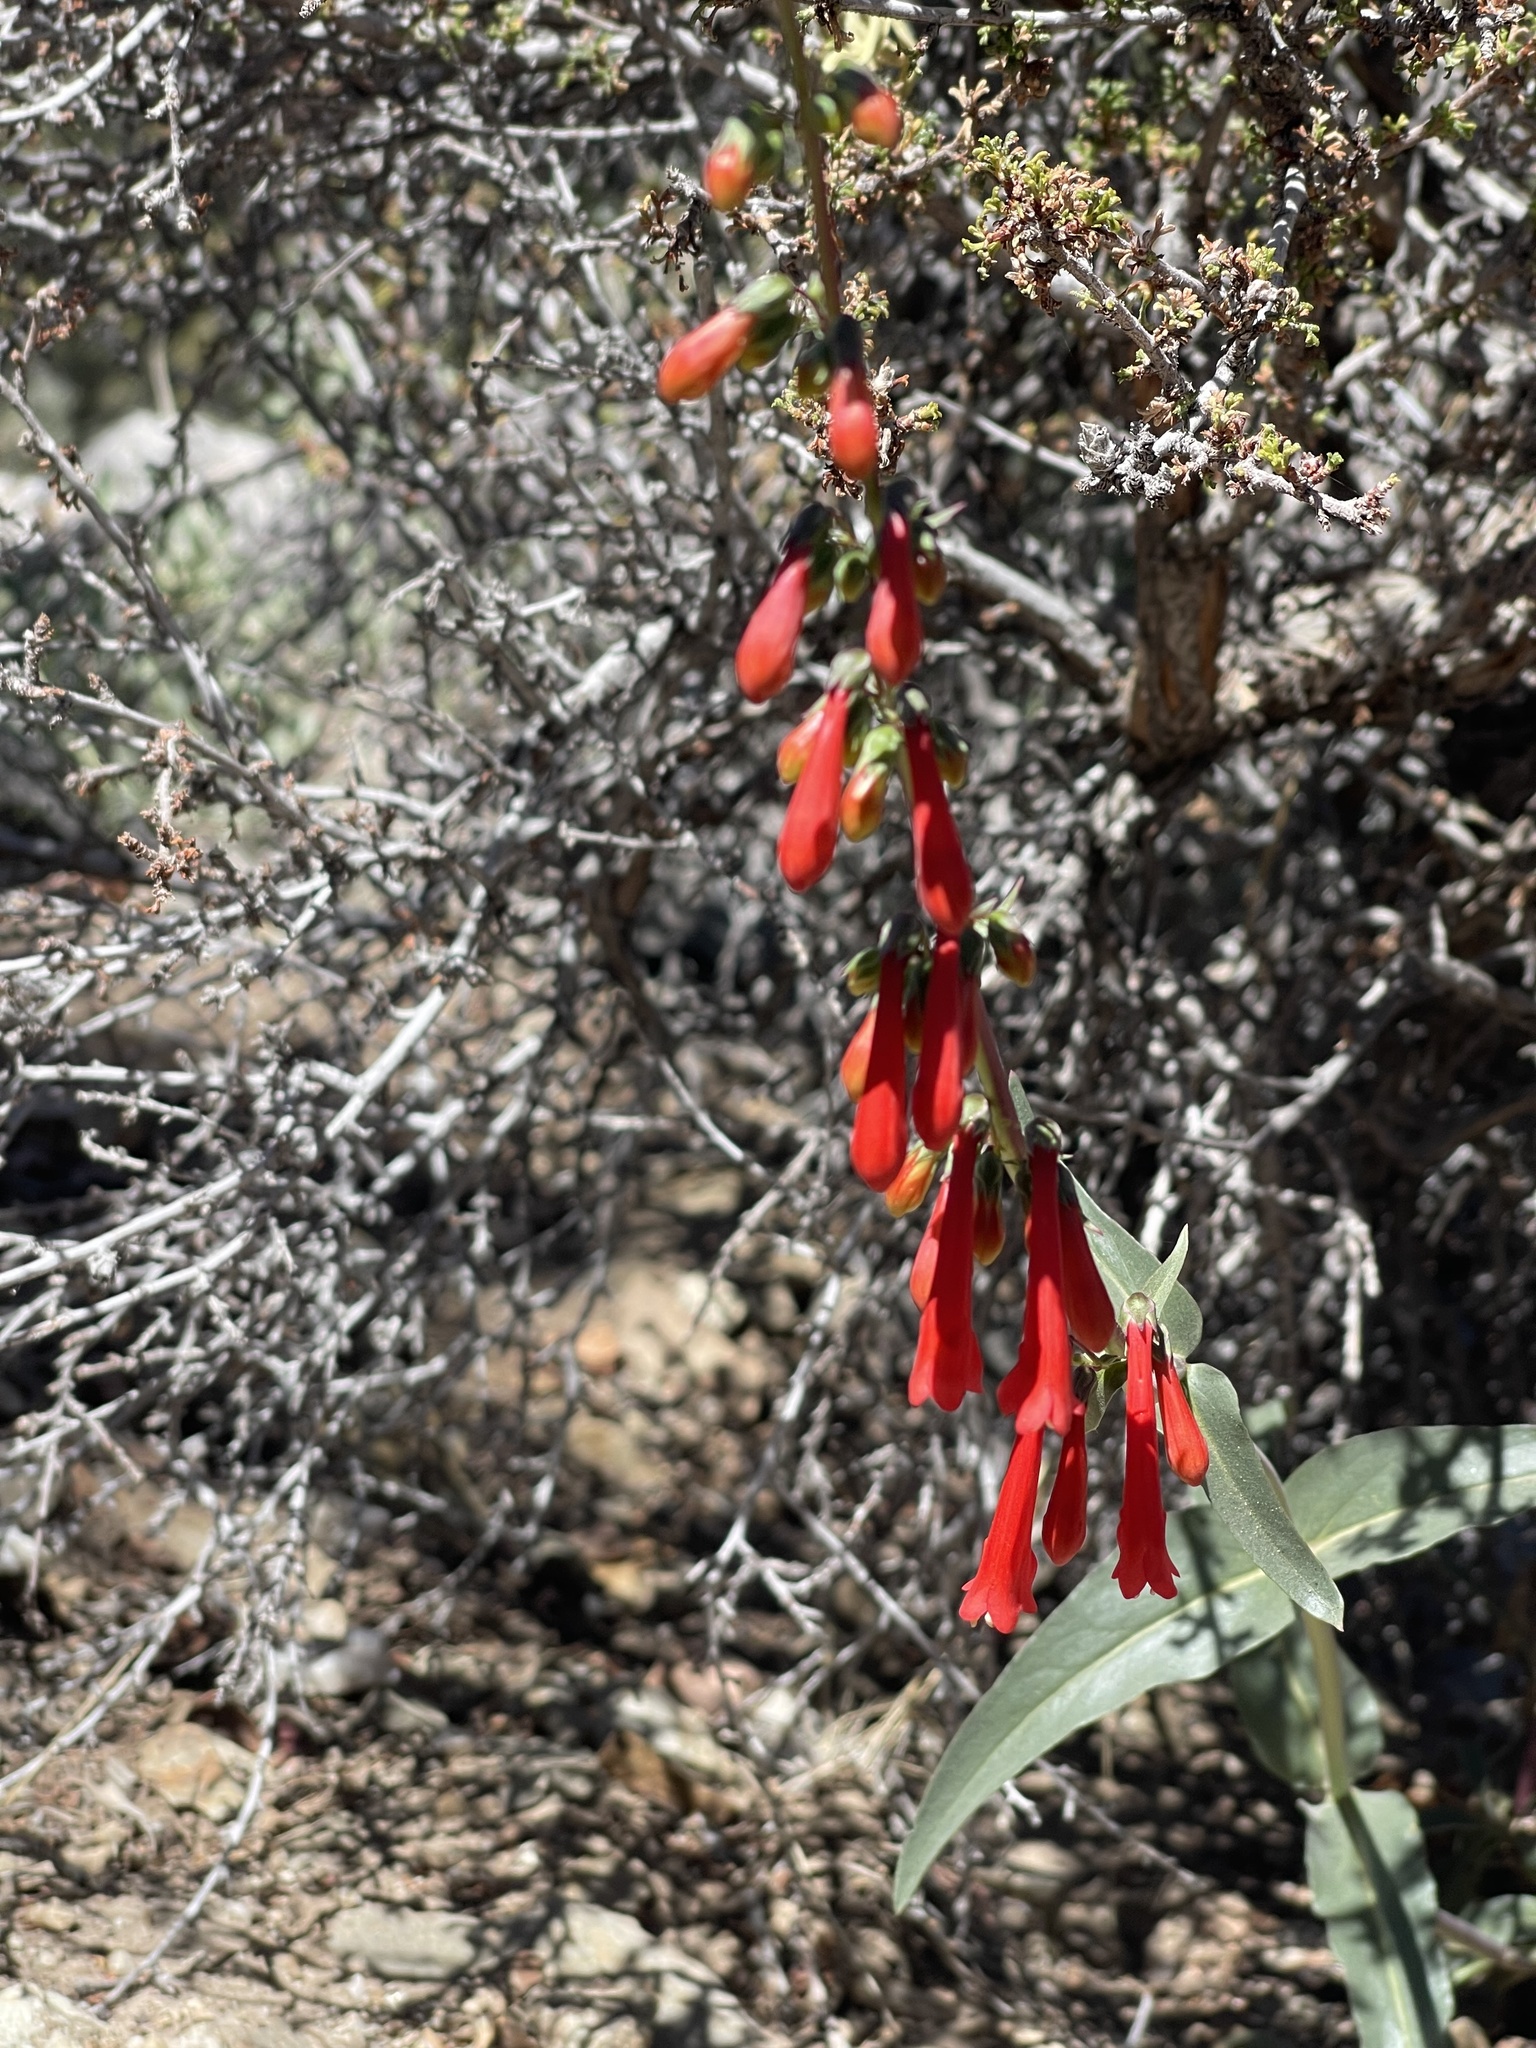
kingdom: Plantae
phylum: Tracheophyta
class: Magnoliopsida
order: Lamiales
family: Plantaginaceae
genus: Penstemon
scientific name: Penstemon centranthifolius
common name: Scarlet bugler
